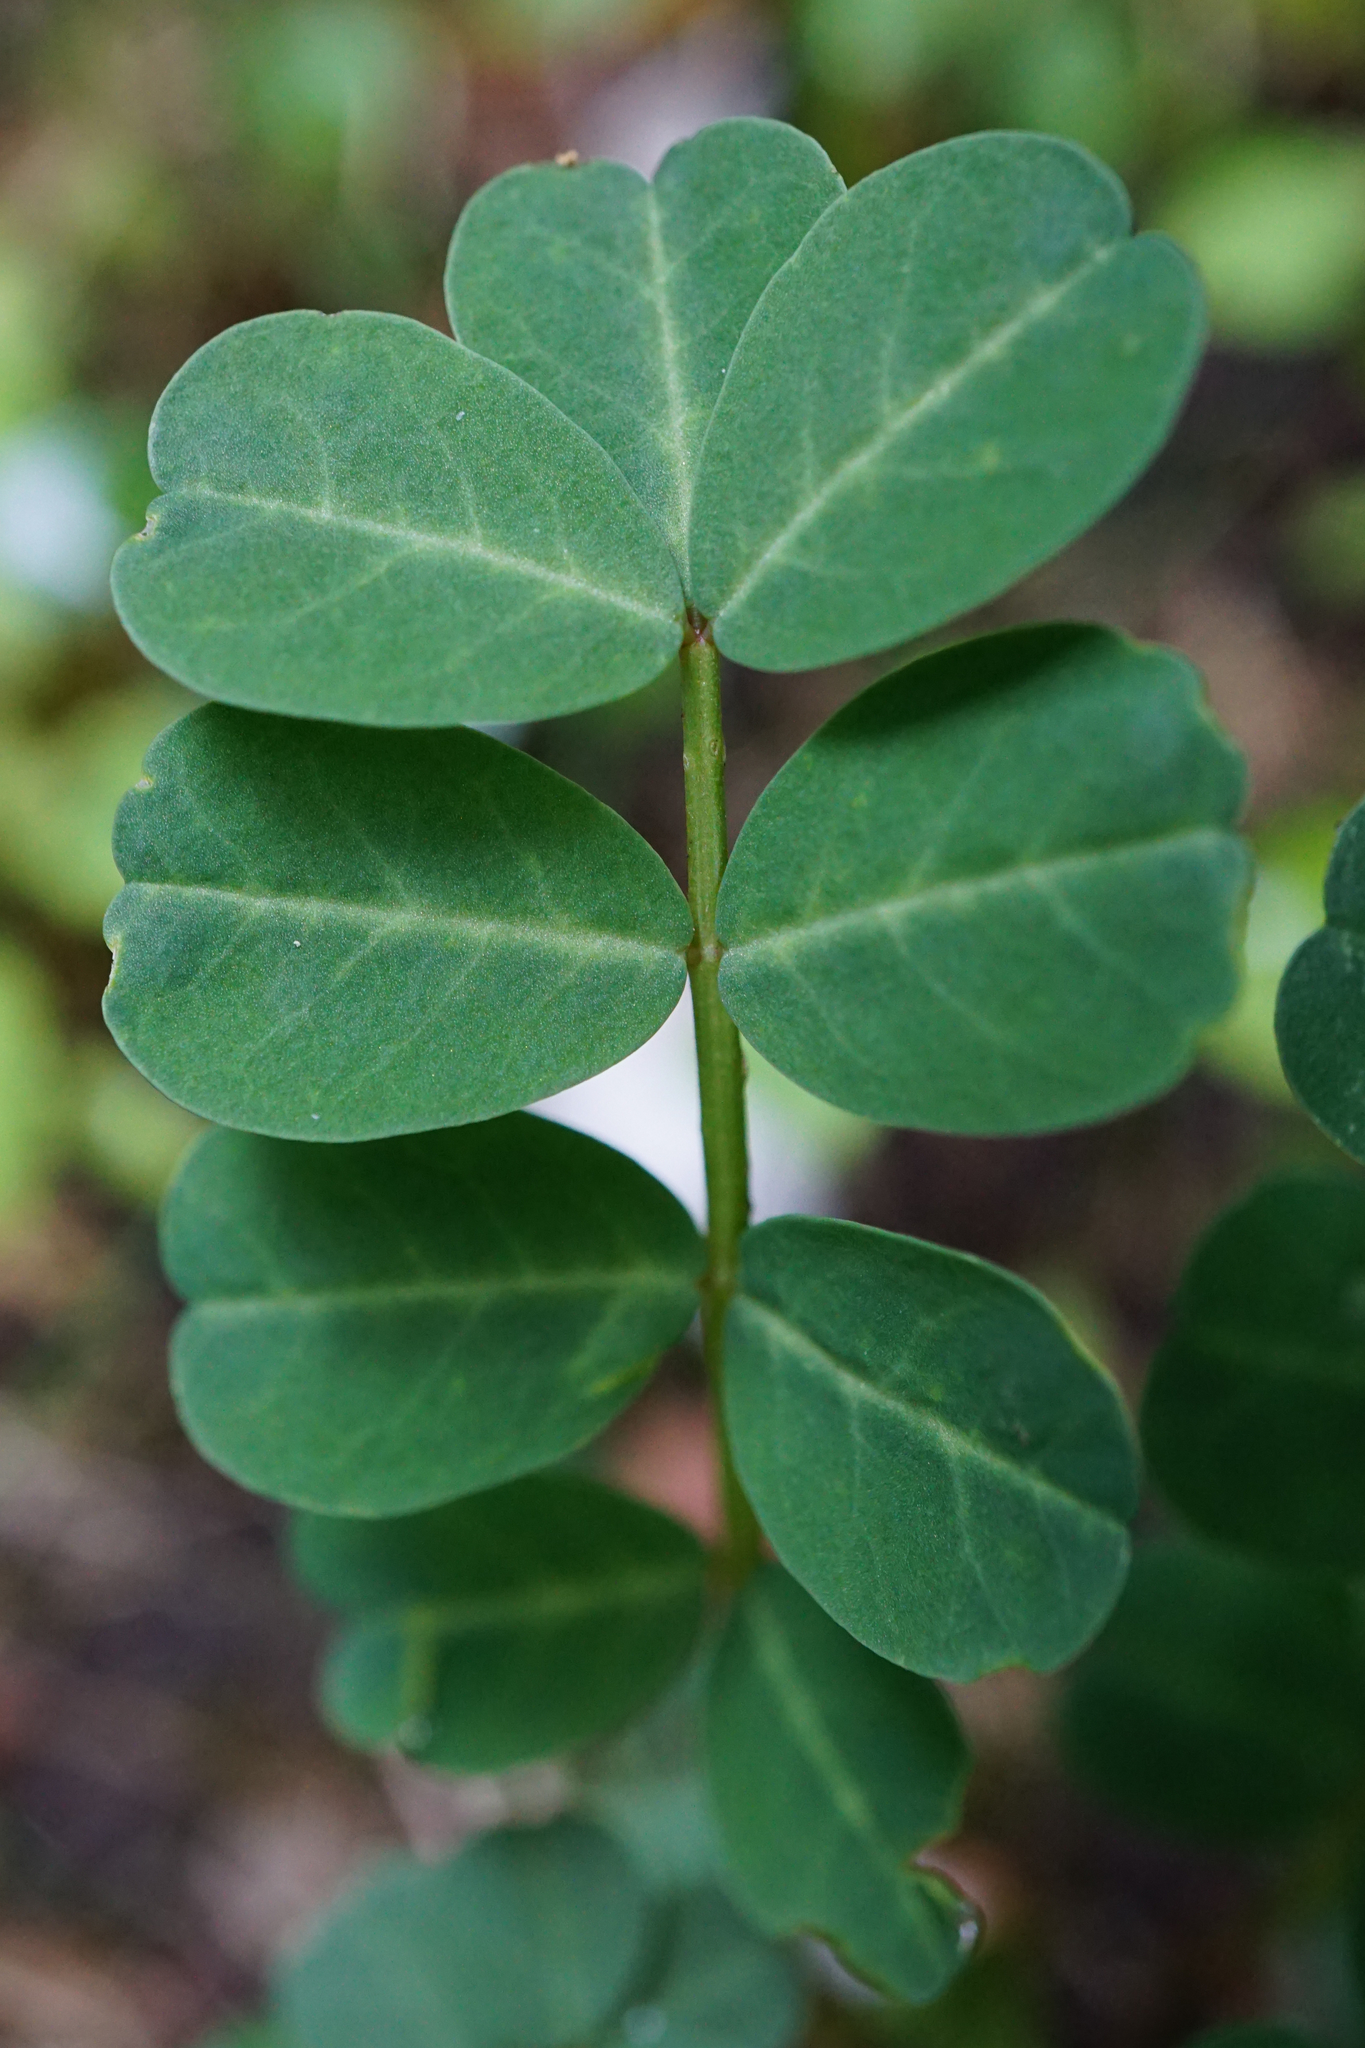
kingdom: Plantae
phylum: Tracheophyta
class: Magnoliopsida
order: Fabales
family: Fabaceae
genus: Coronilla
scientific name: Coronilla varia
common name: Crownvetch
